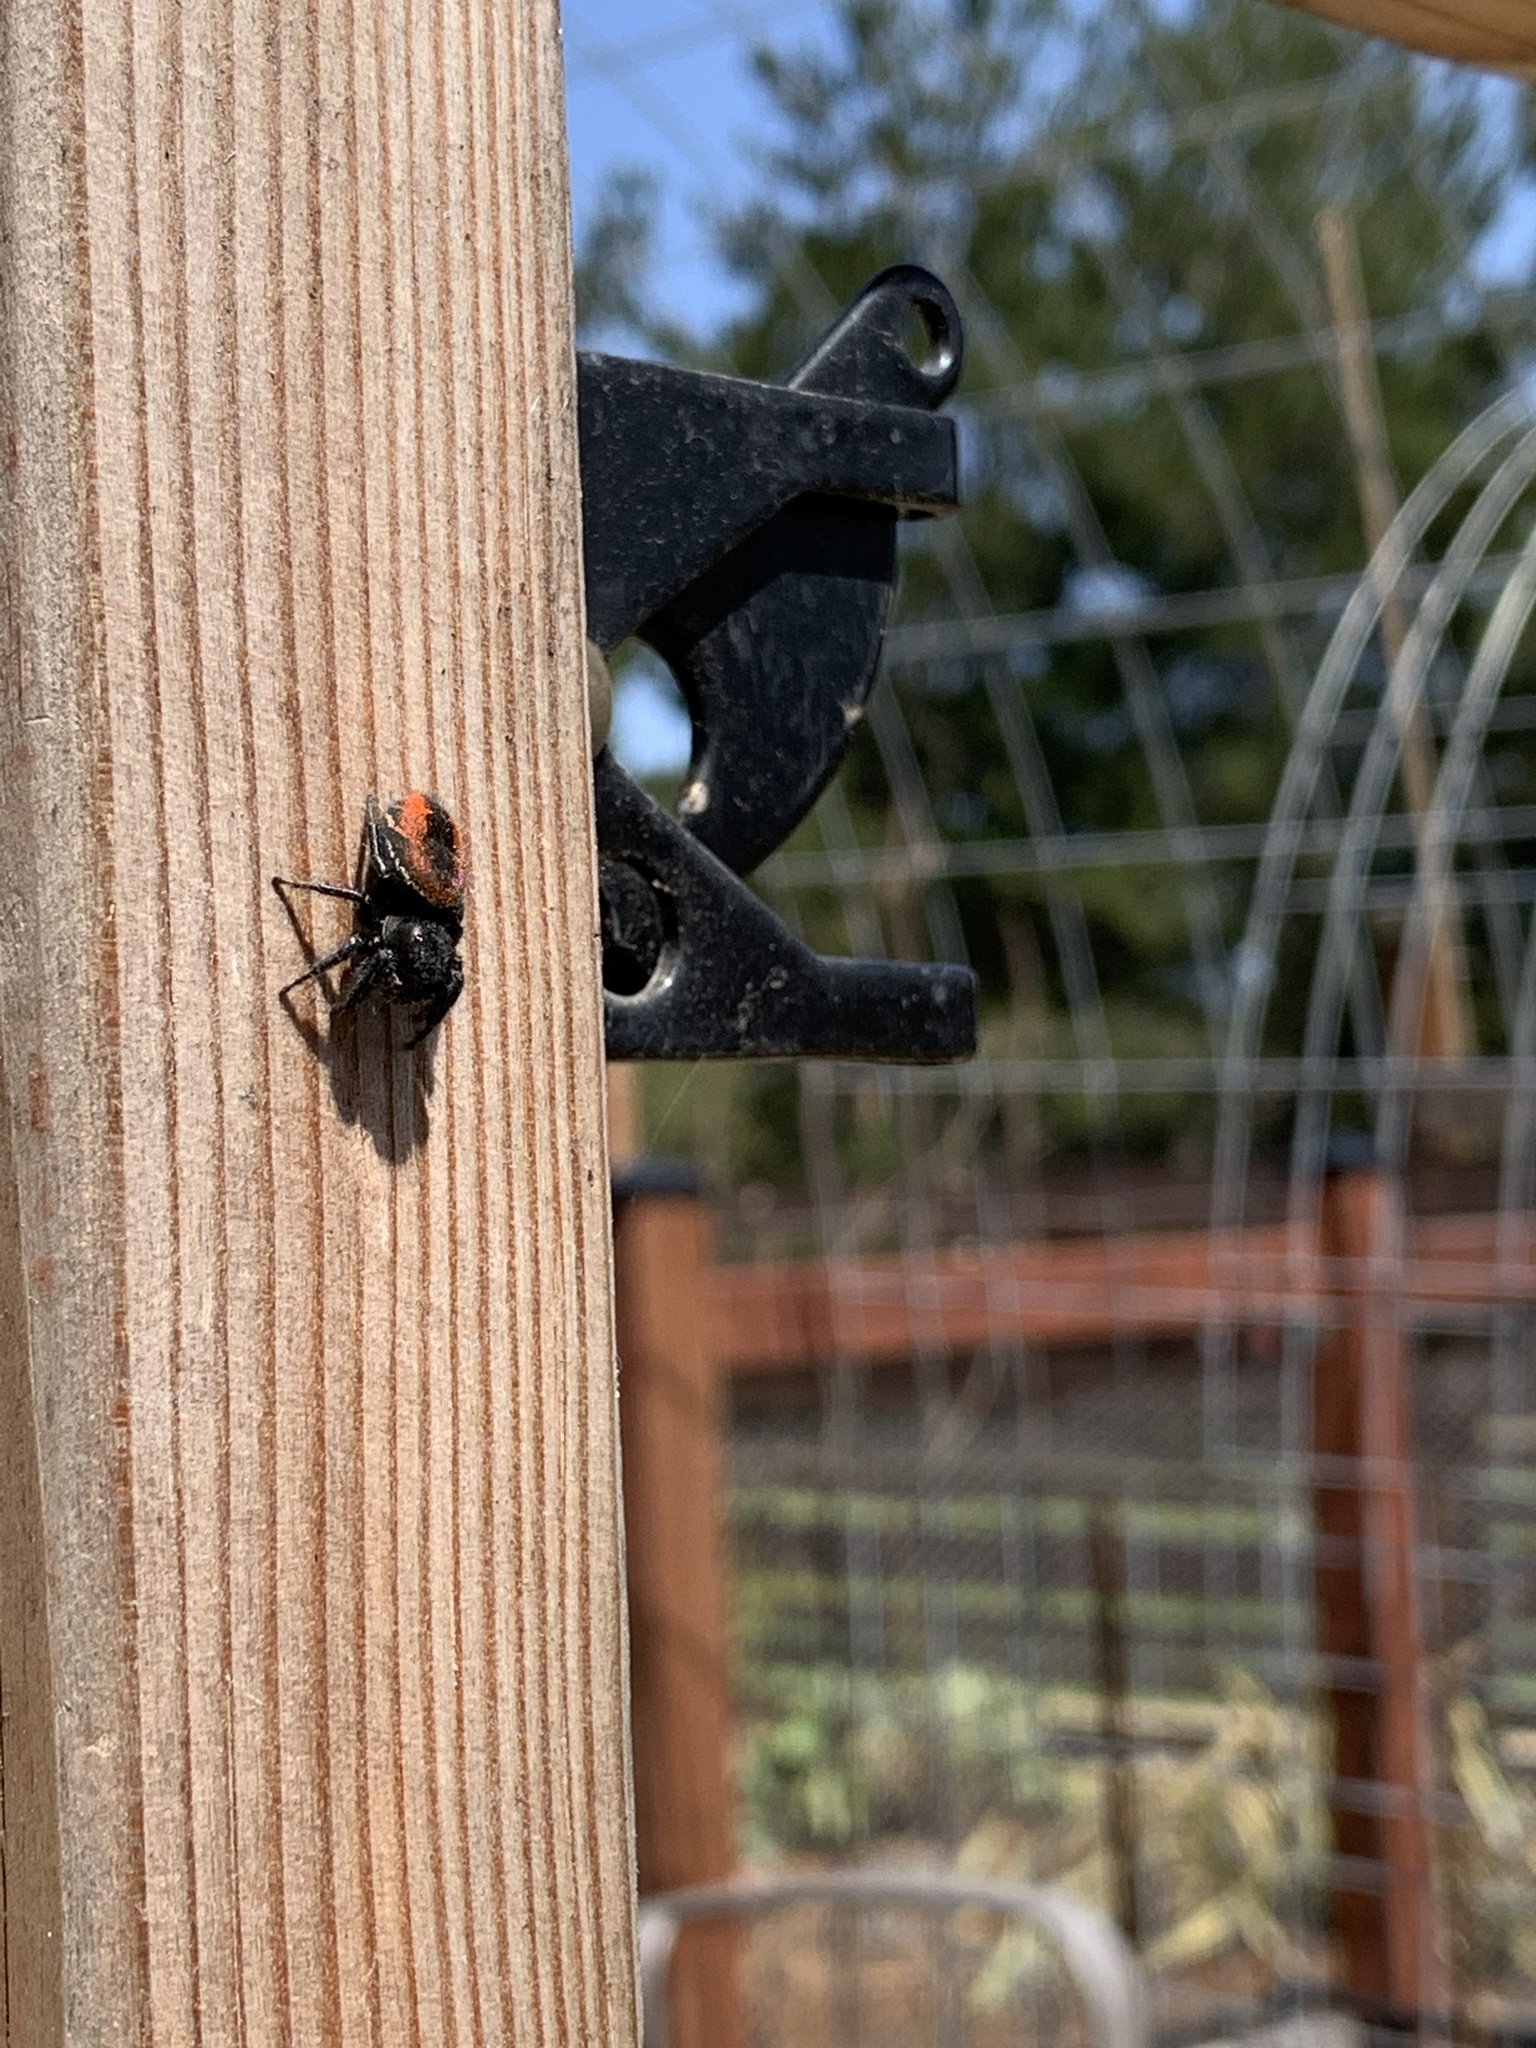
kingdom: Animalia
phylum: Arthropoda
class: Arachnida
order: Araneae
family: Salticidae
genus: Phidippus
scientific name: Phidippus johnsoni
